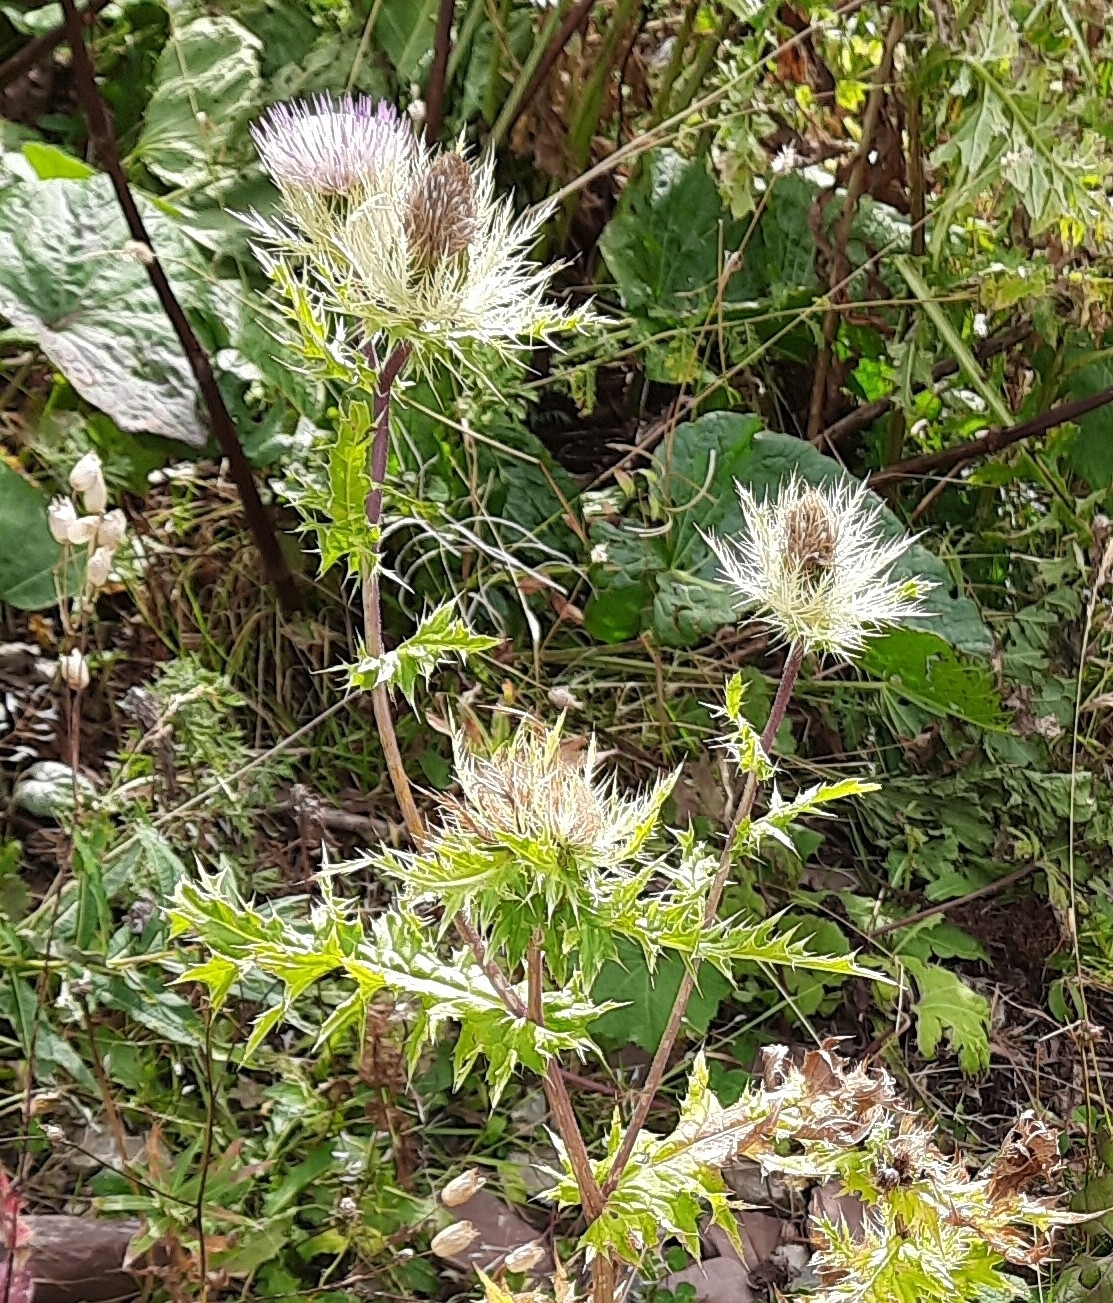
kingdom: Plantae
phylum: Tracheophyta
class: Magnoliopsida
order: Asterales
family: Asteraceae
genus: Cirsium
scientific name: Cirsium obvallatum
